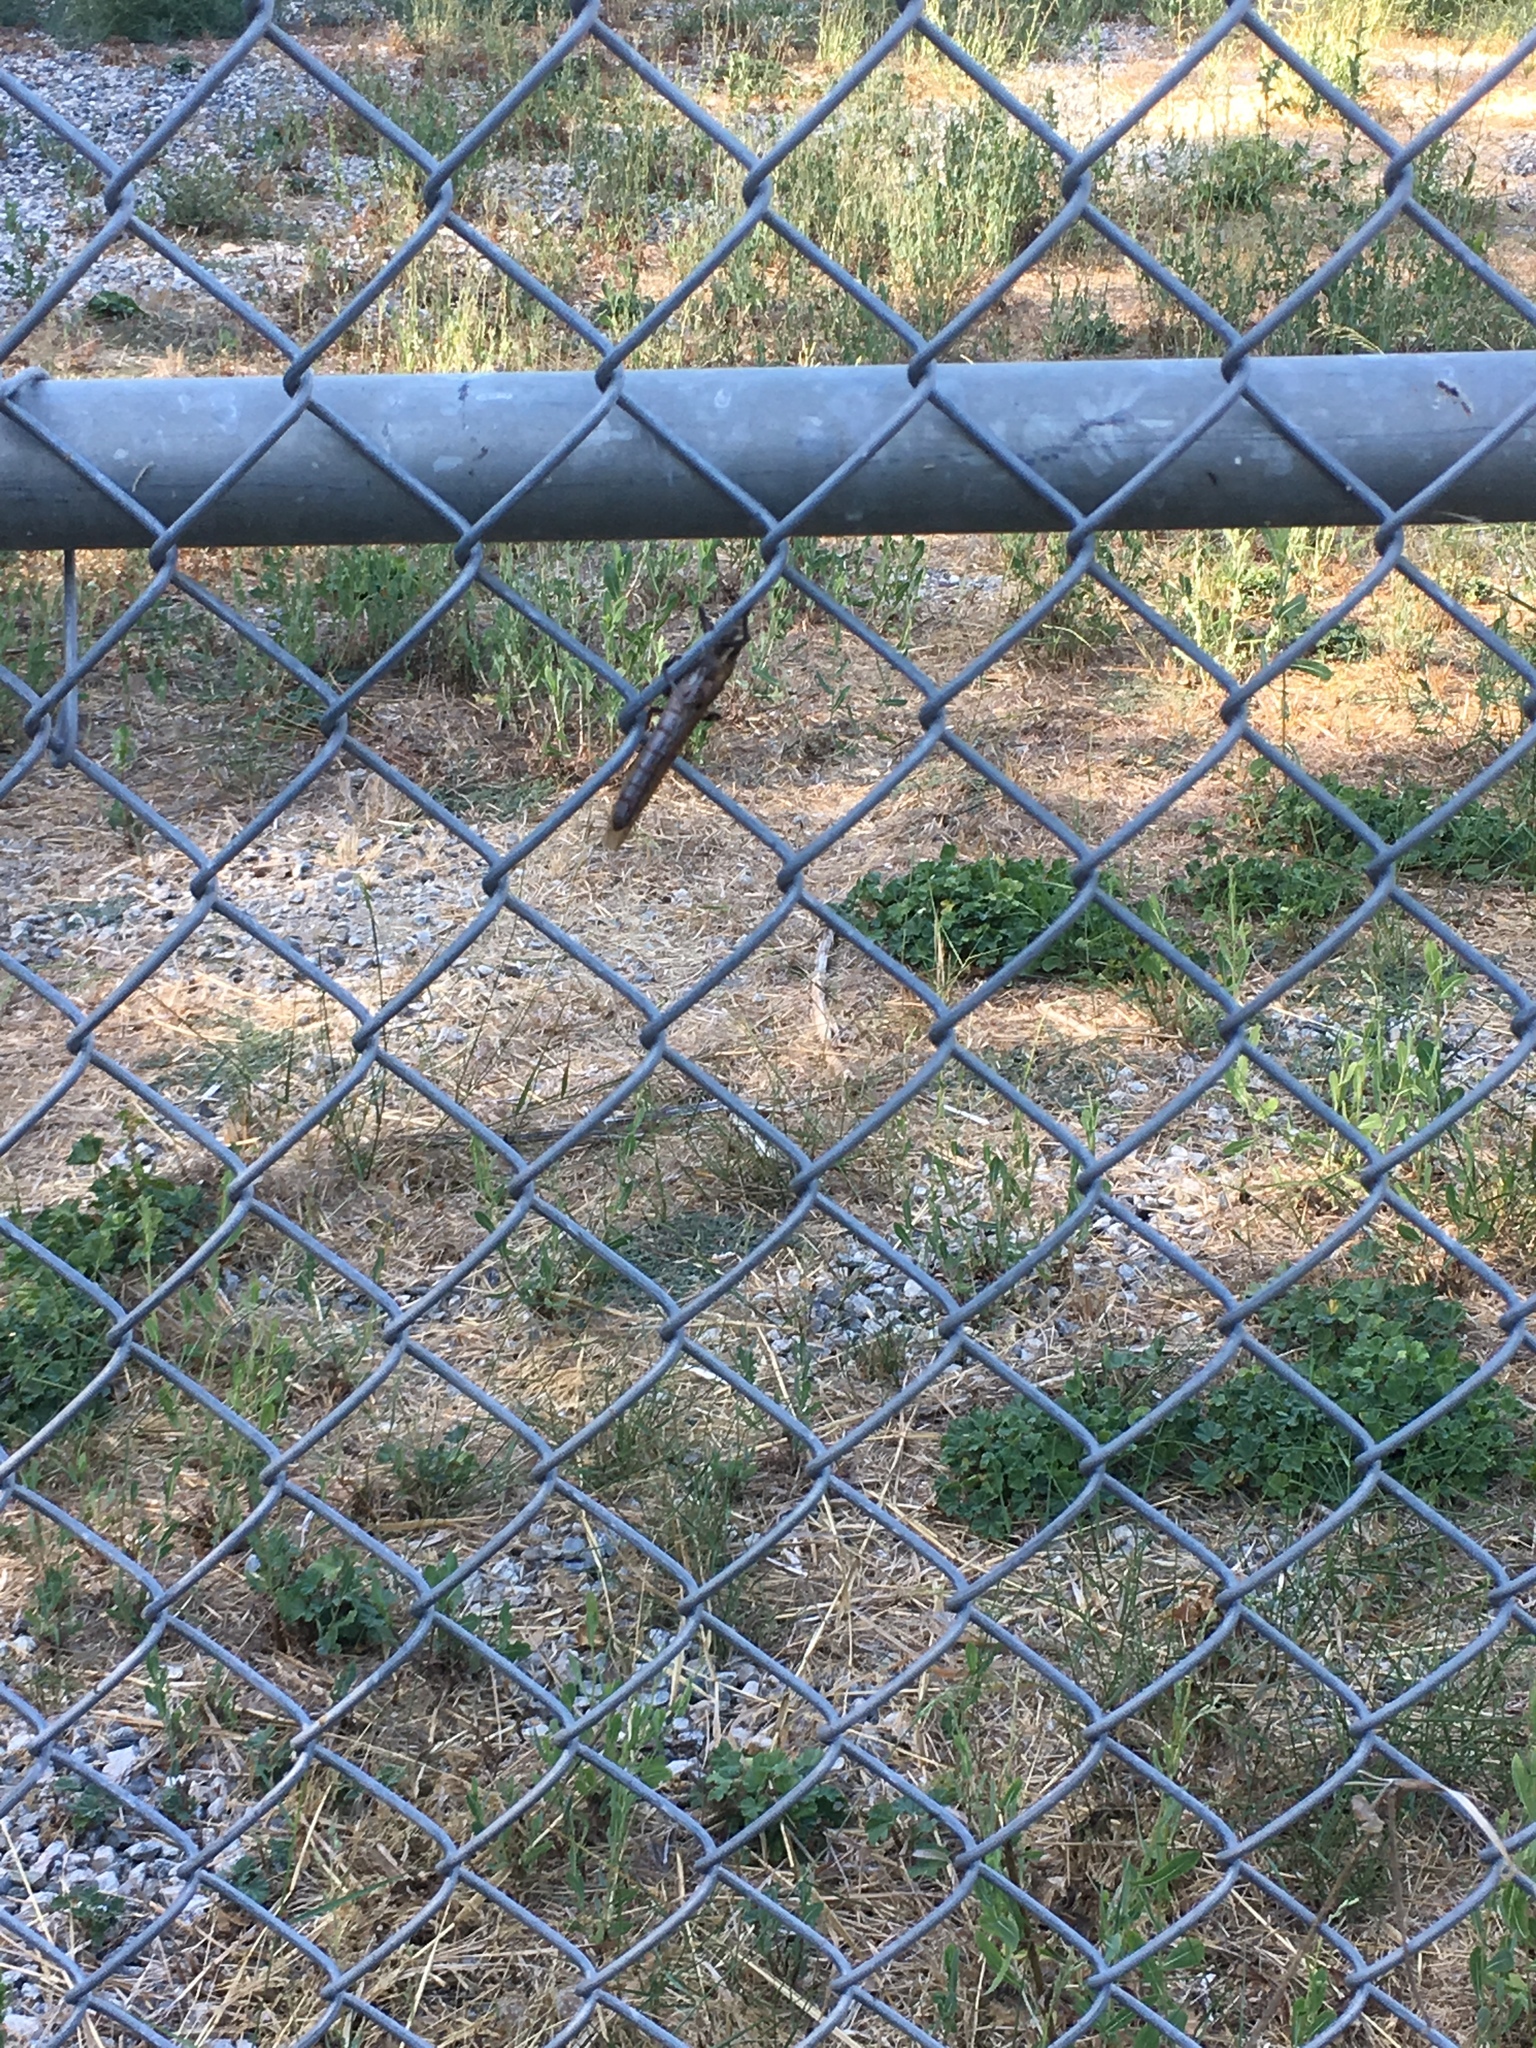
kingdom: Animalia
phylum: Arthropoda
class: Insecta
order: Orthoptera
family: Acrididae
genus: Schistocerca
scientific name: Schistocerca nitens
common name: Vagrant grasshopper
